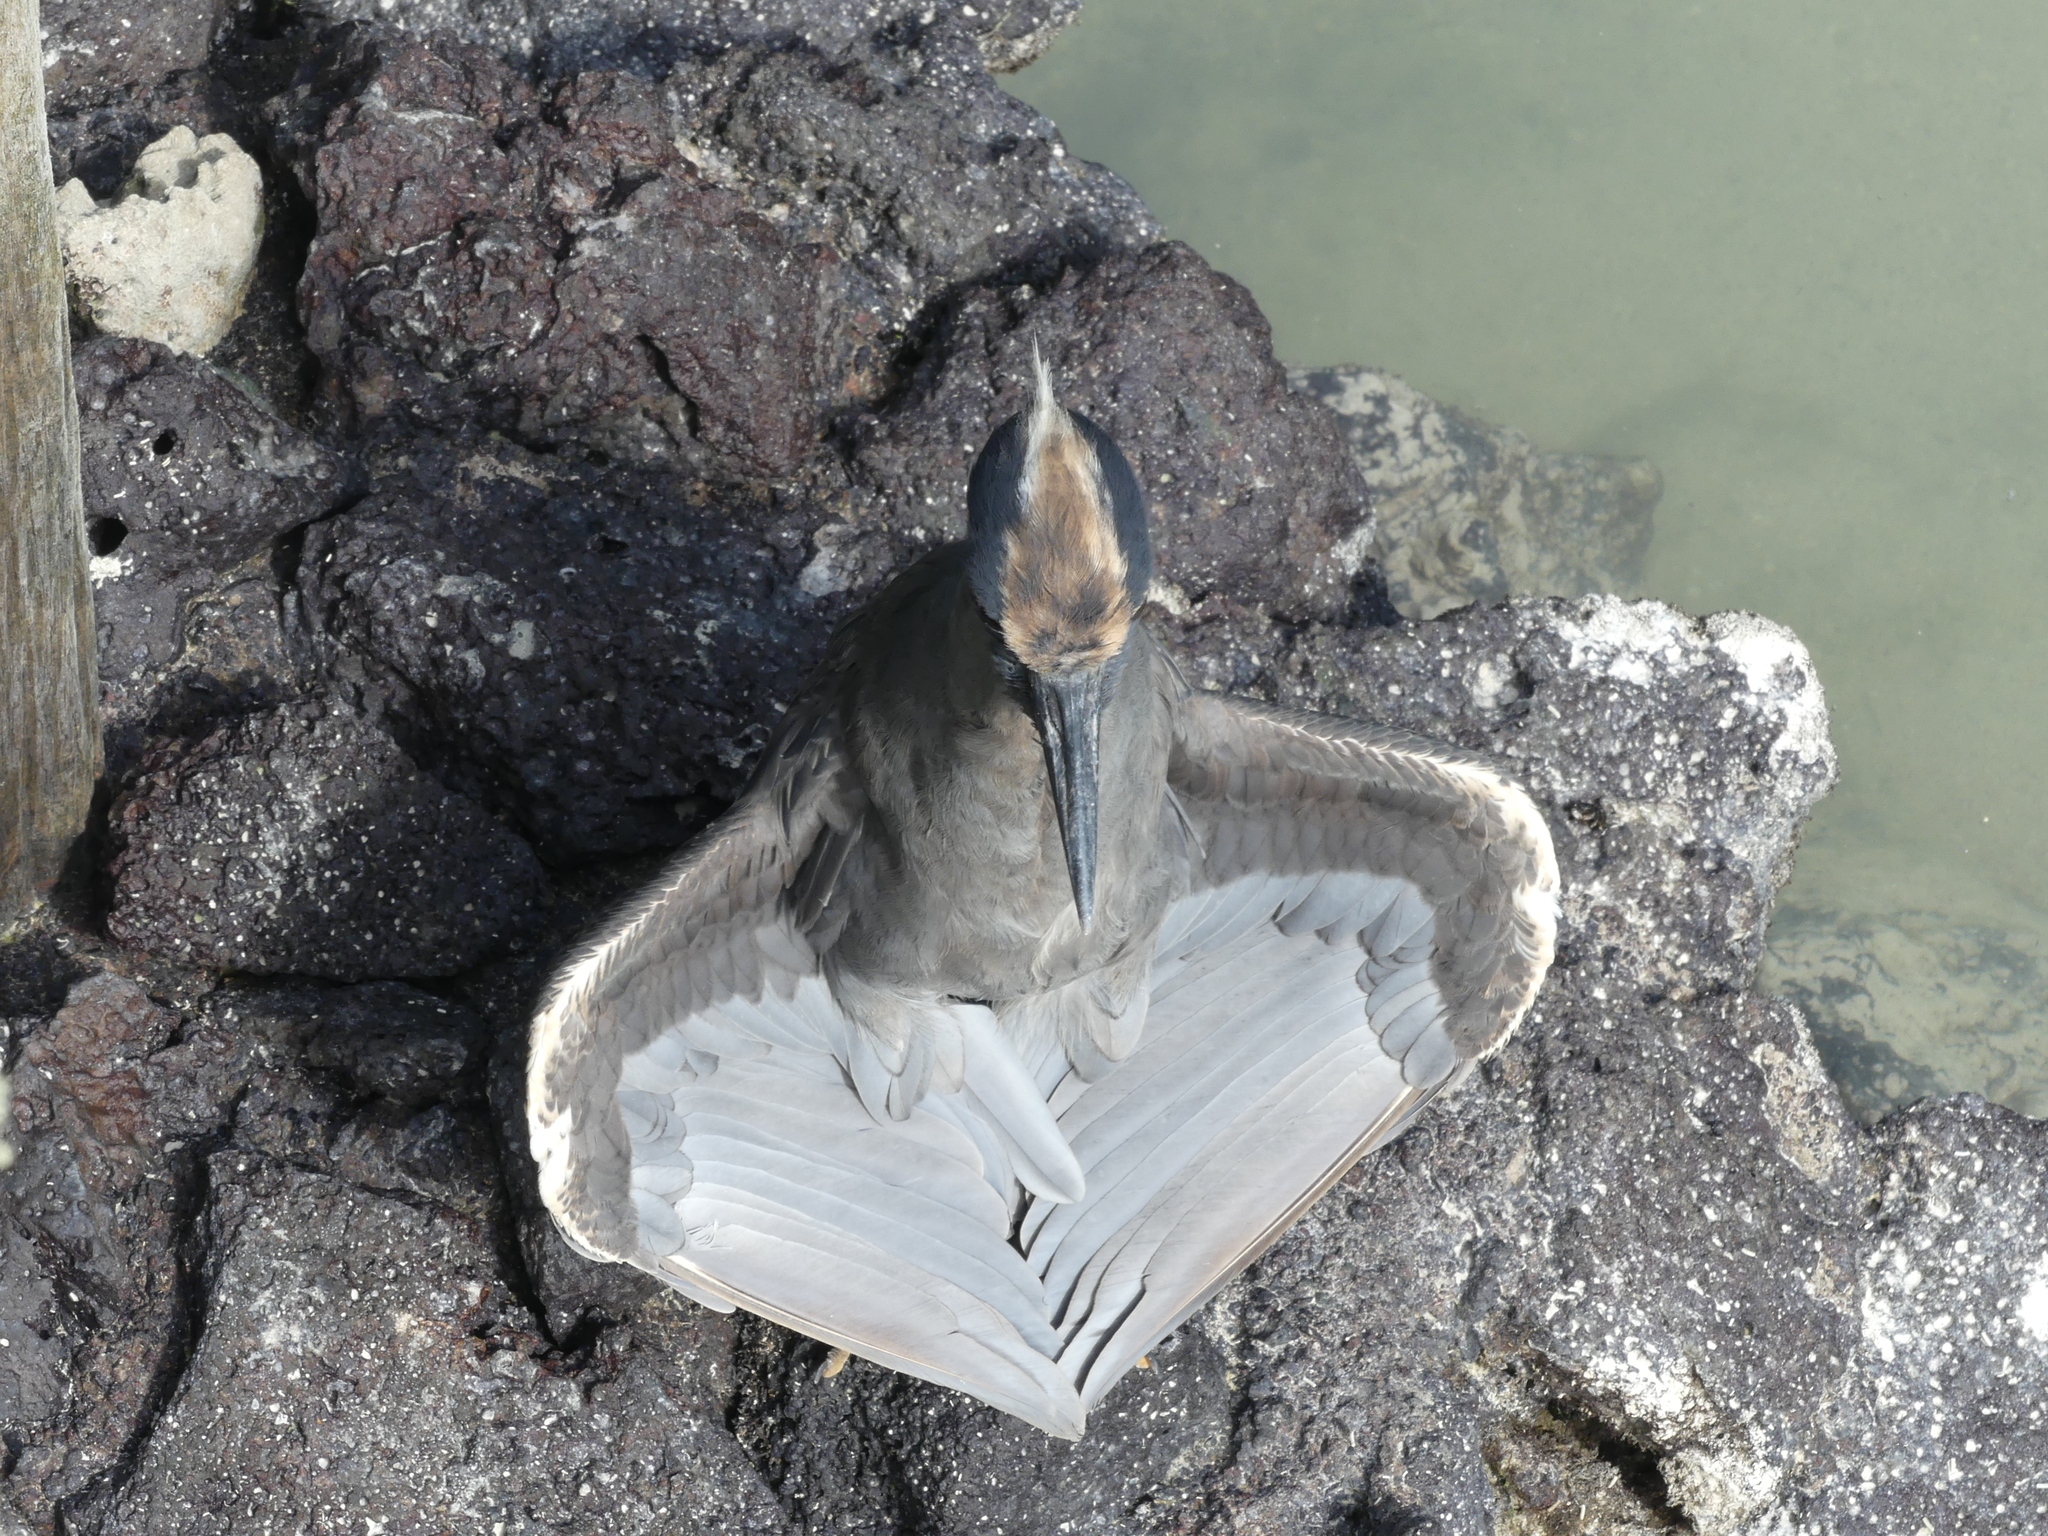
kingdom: Animalia
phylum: Chordata
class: Aves
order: Pelecaniformes
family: Ardeidae
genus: Nyctanassa
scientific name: Nyctanassa violacea
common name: Yellow-crowned night heron
